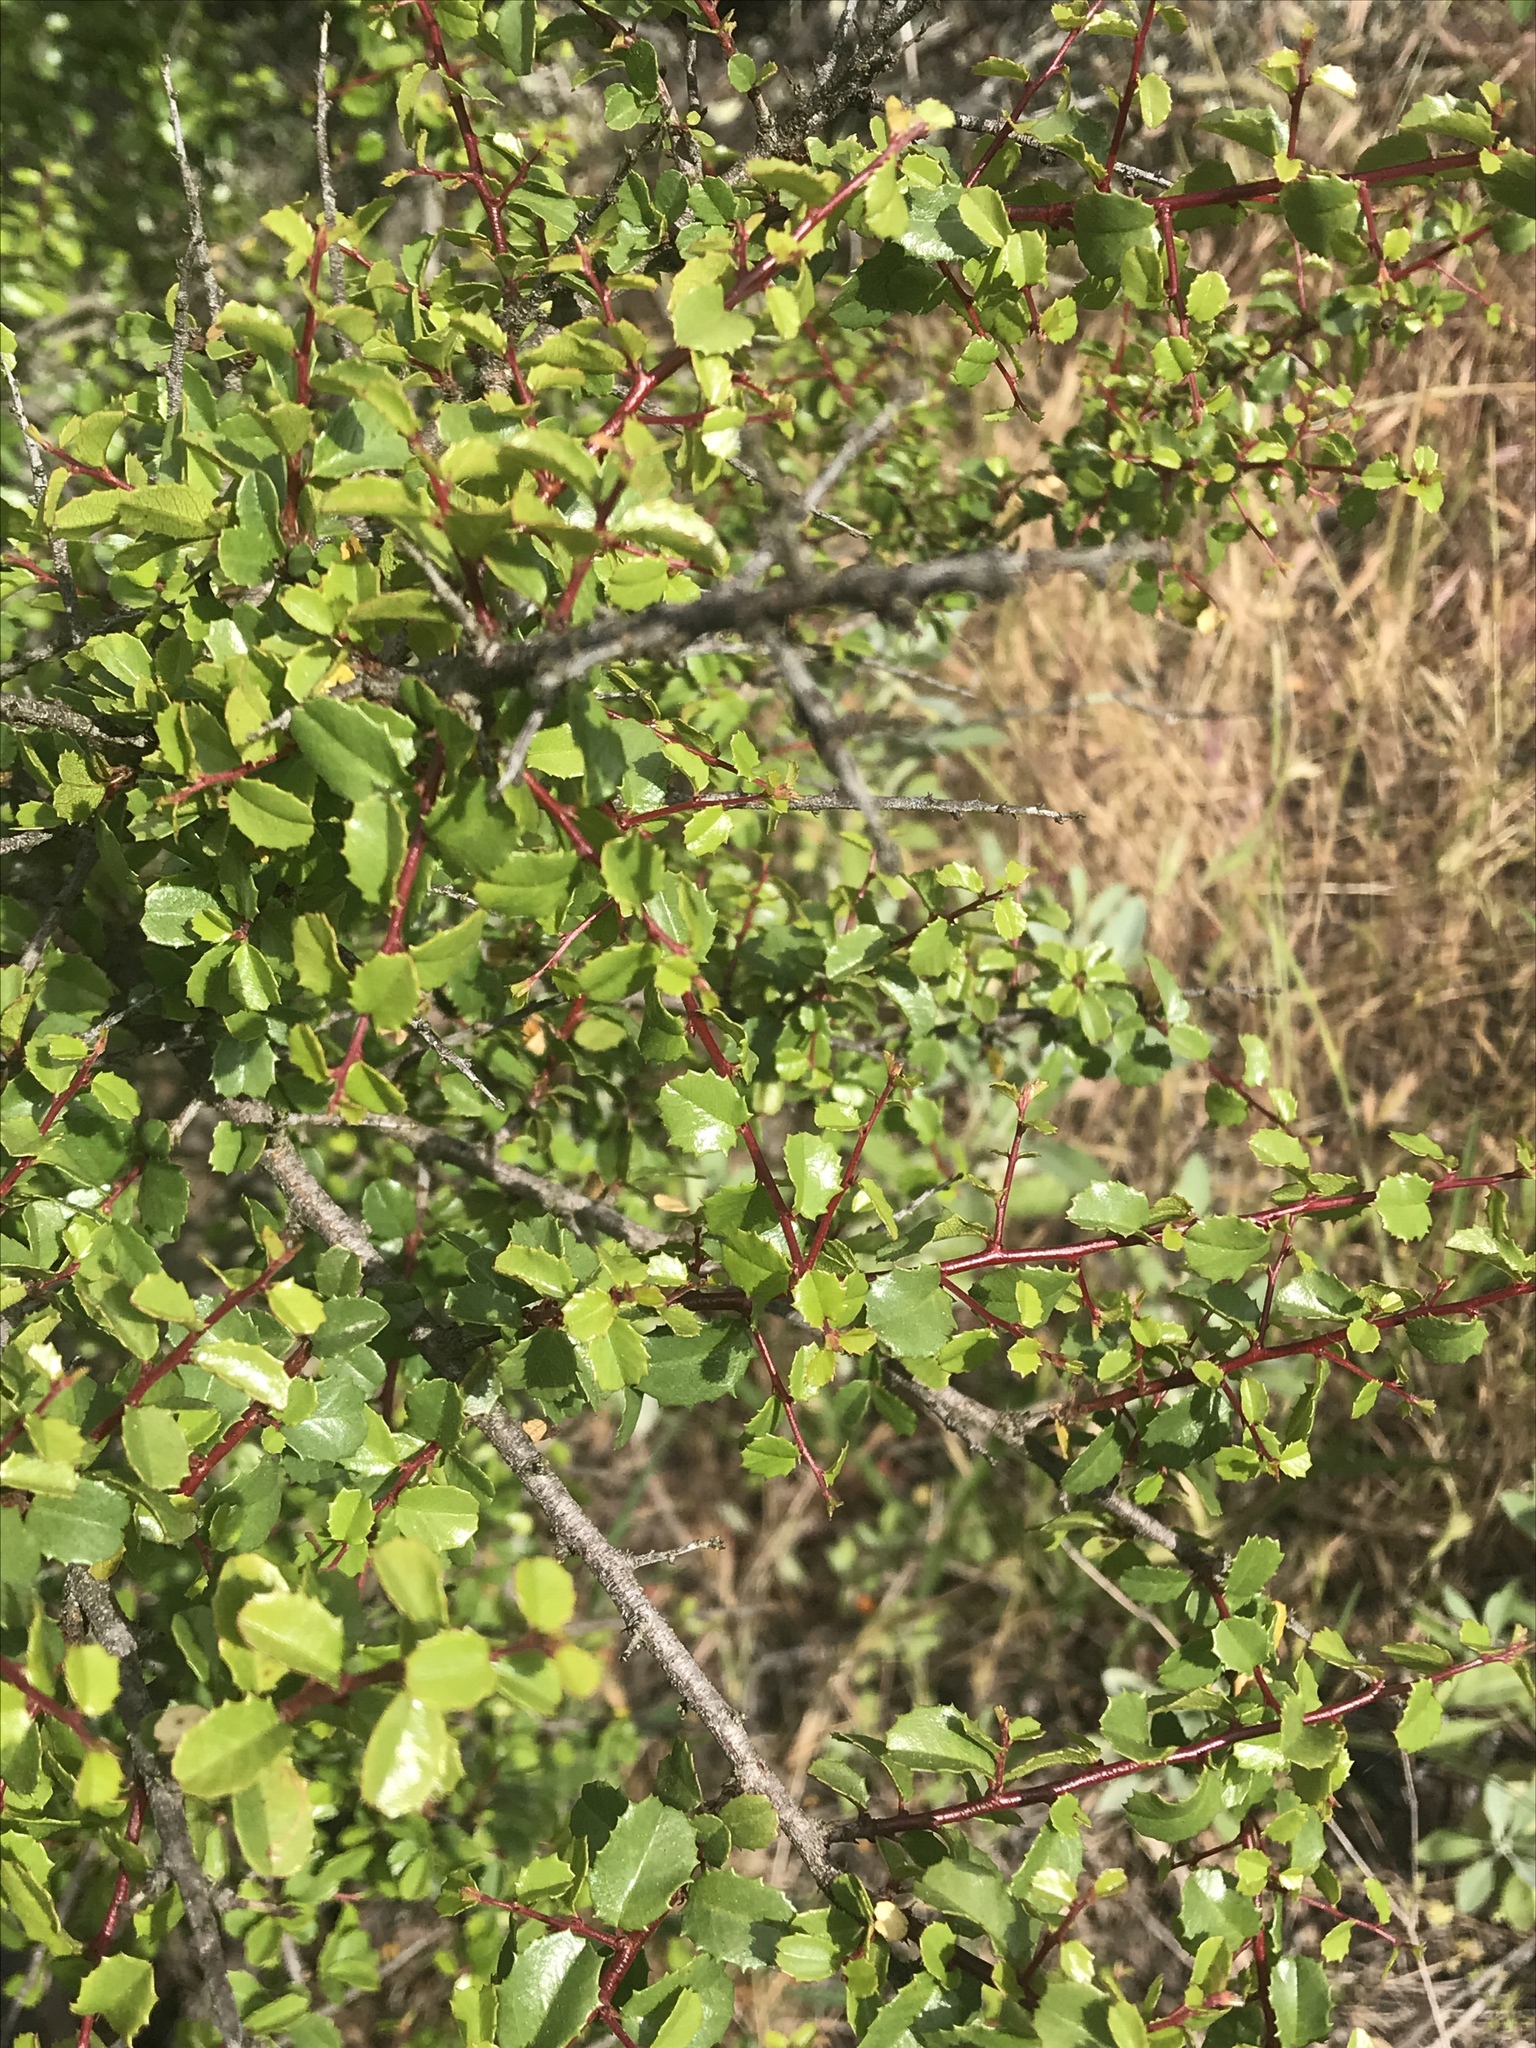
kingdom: Plantae
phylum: Tracheophyta
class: Magnoliopsida
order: Rosales
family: Rhamnaceae
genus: Endotropis
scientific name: Endotropis crocea
